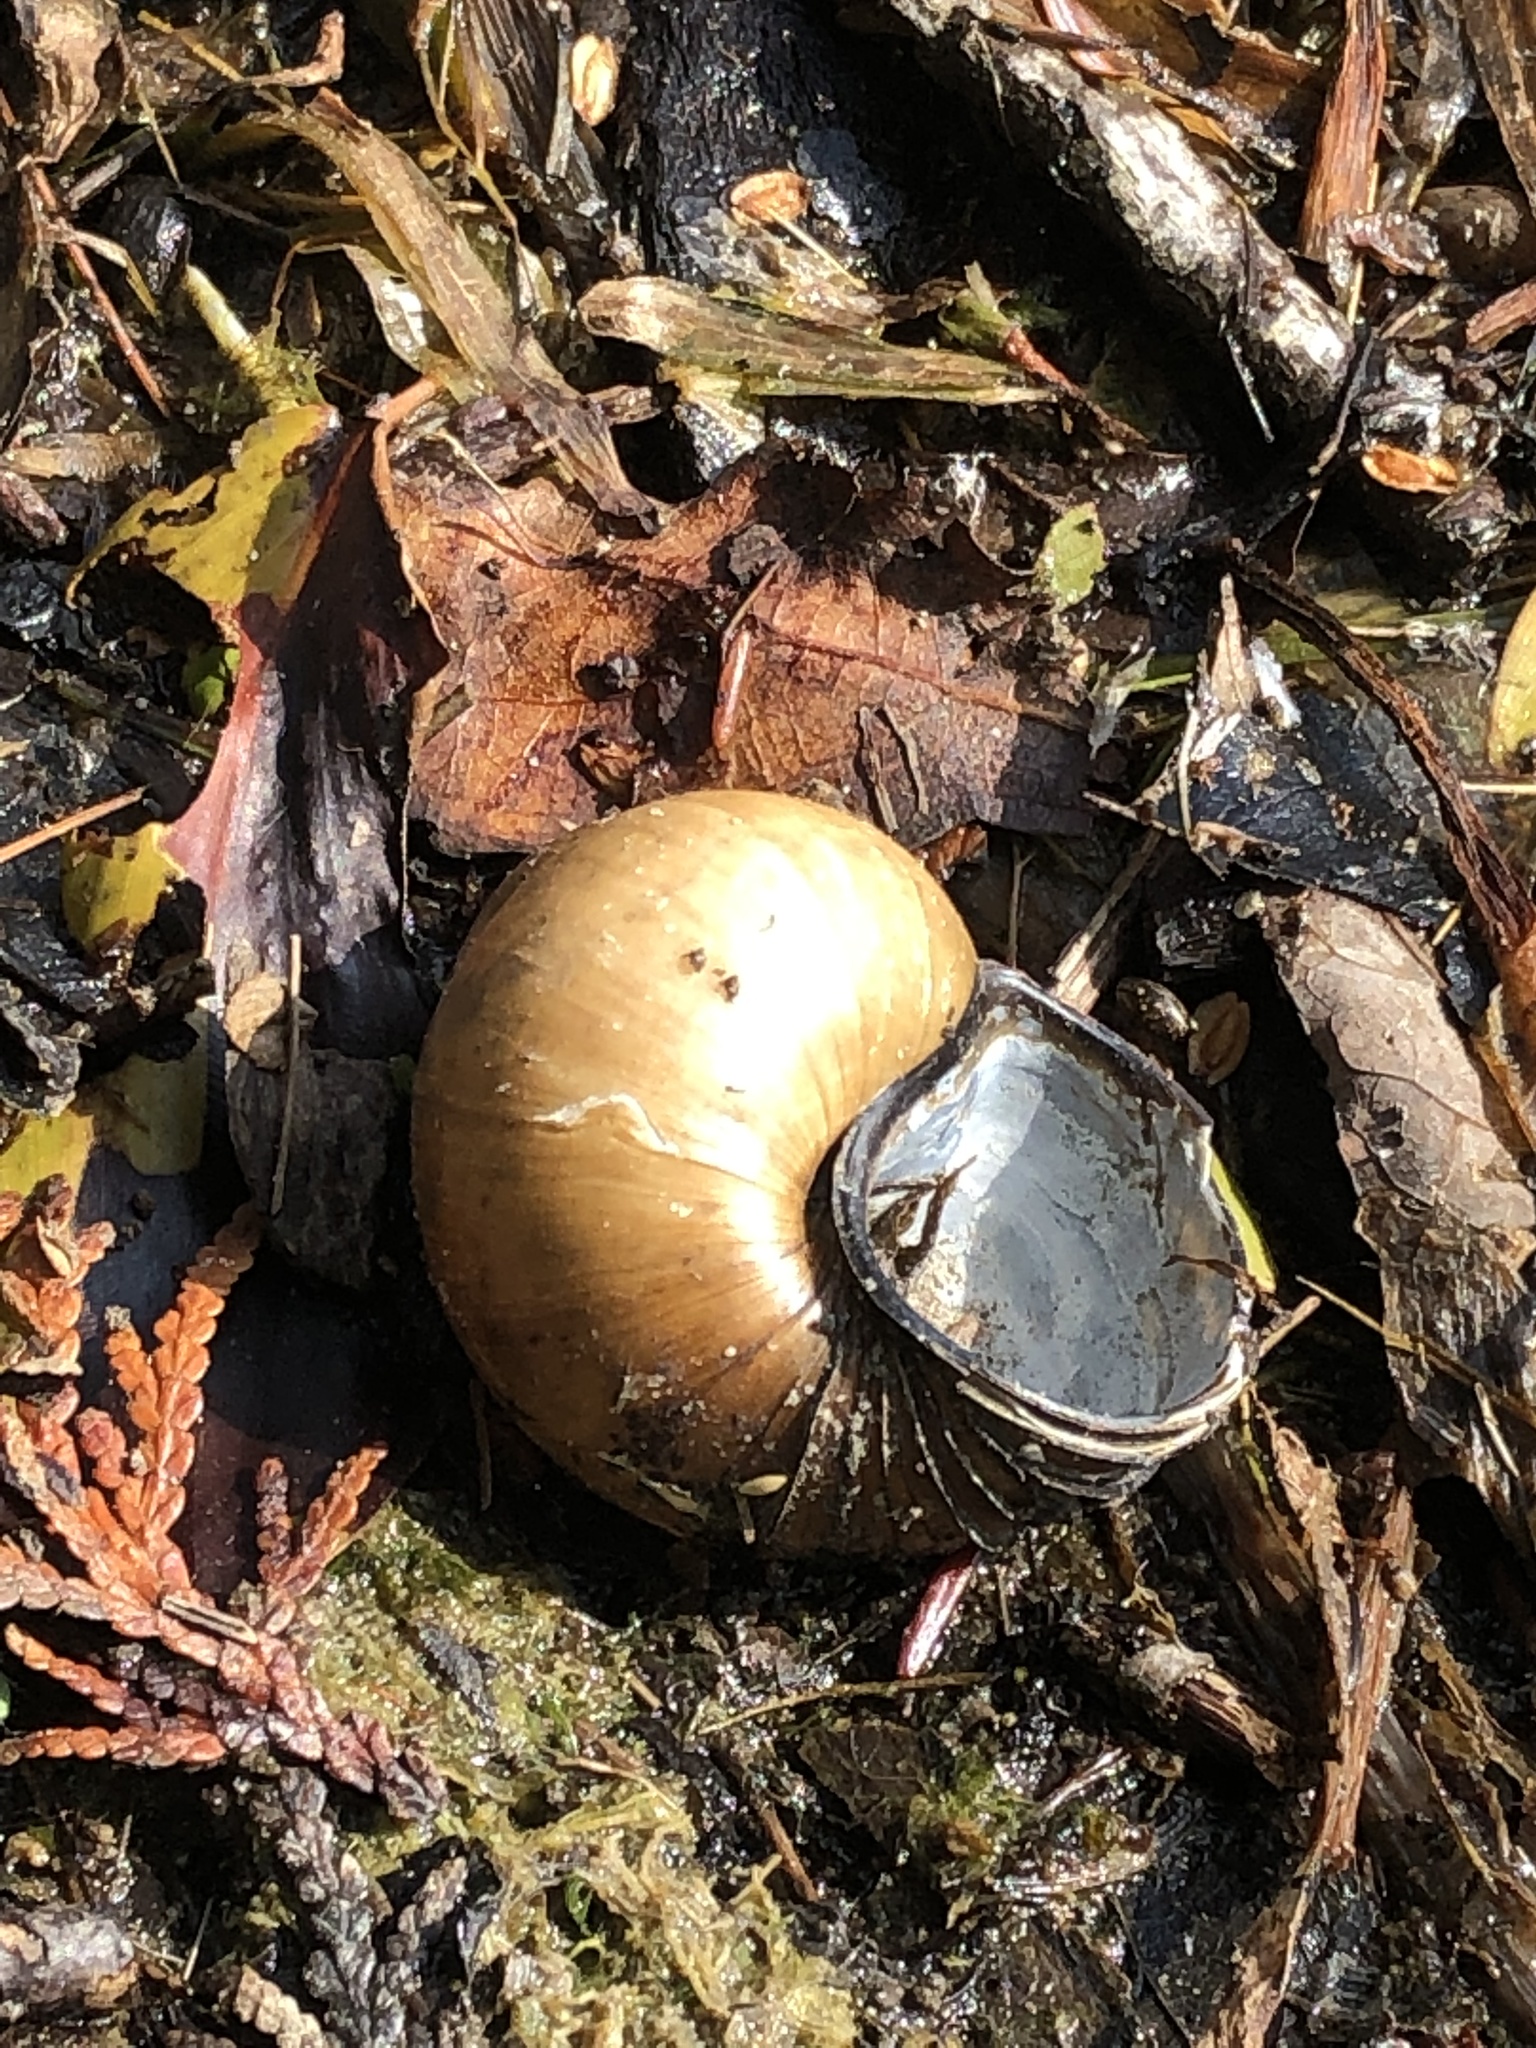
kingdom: Animalia
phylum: Mollusca
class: Gastropoda
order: Architaenioglossa
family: Viviparidae
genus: Cipangopaludina
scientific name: Cipangopaludina chinensis
